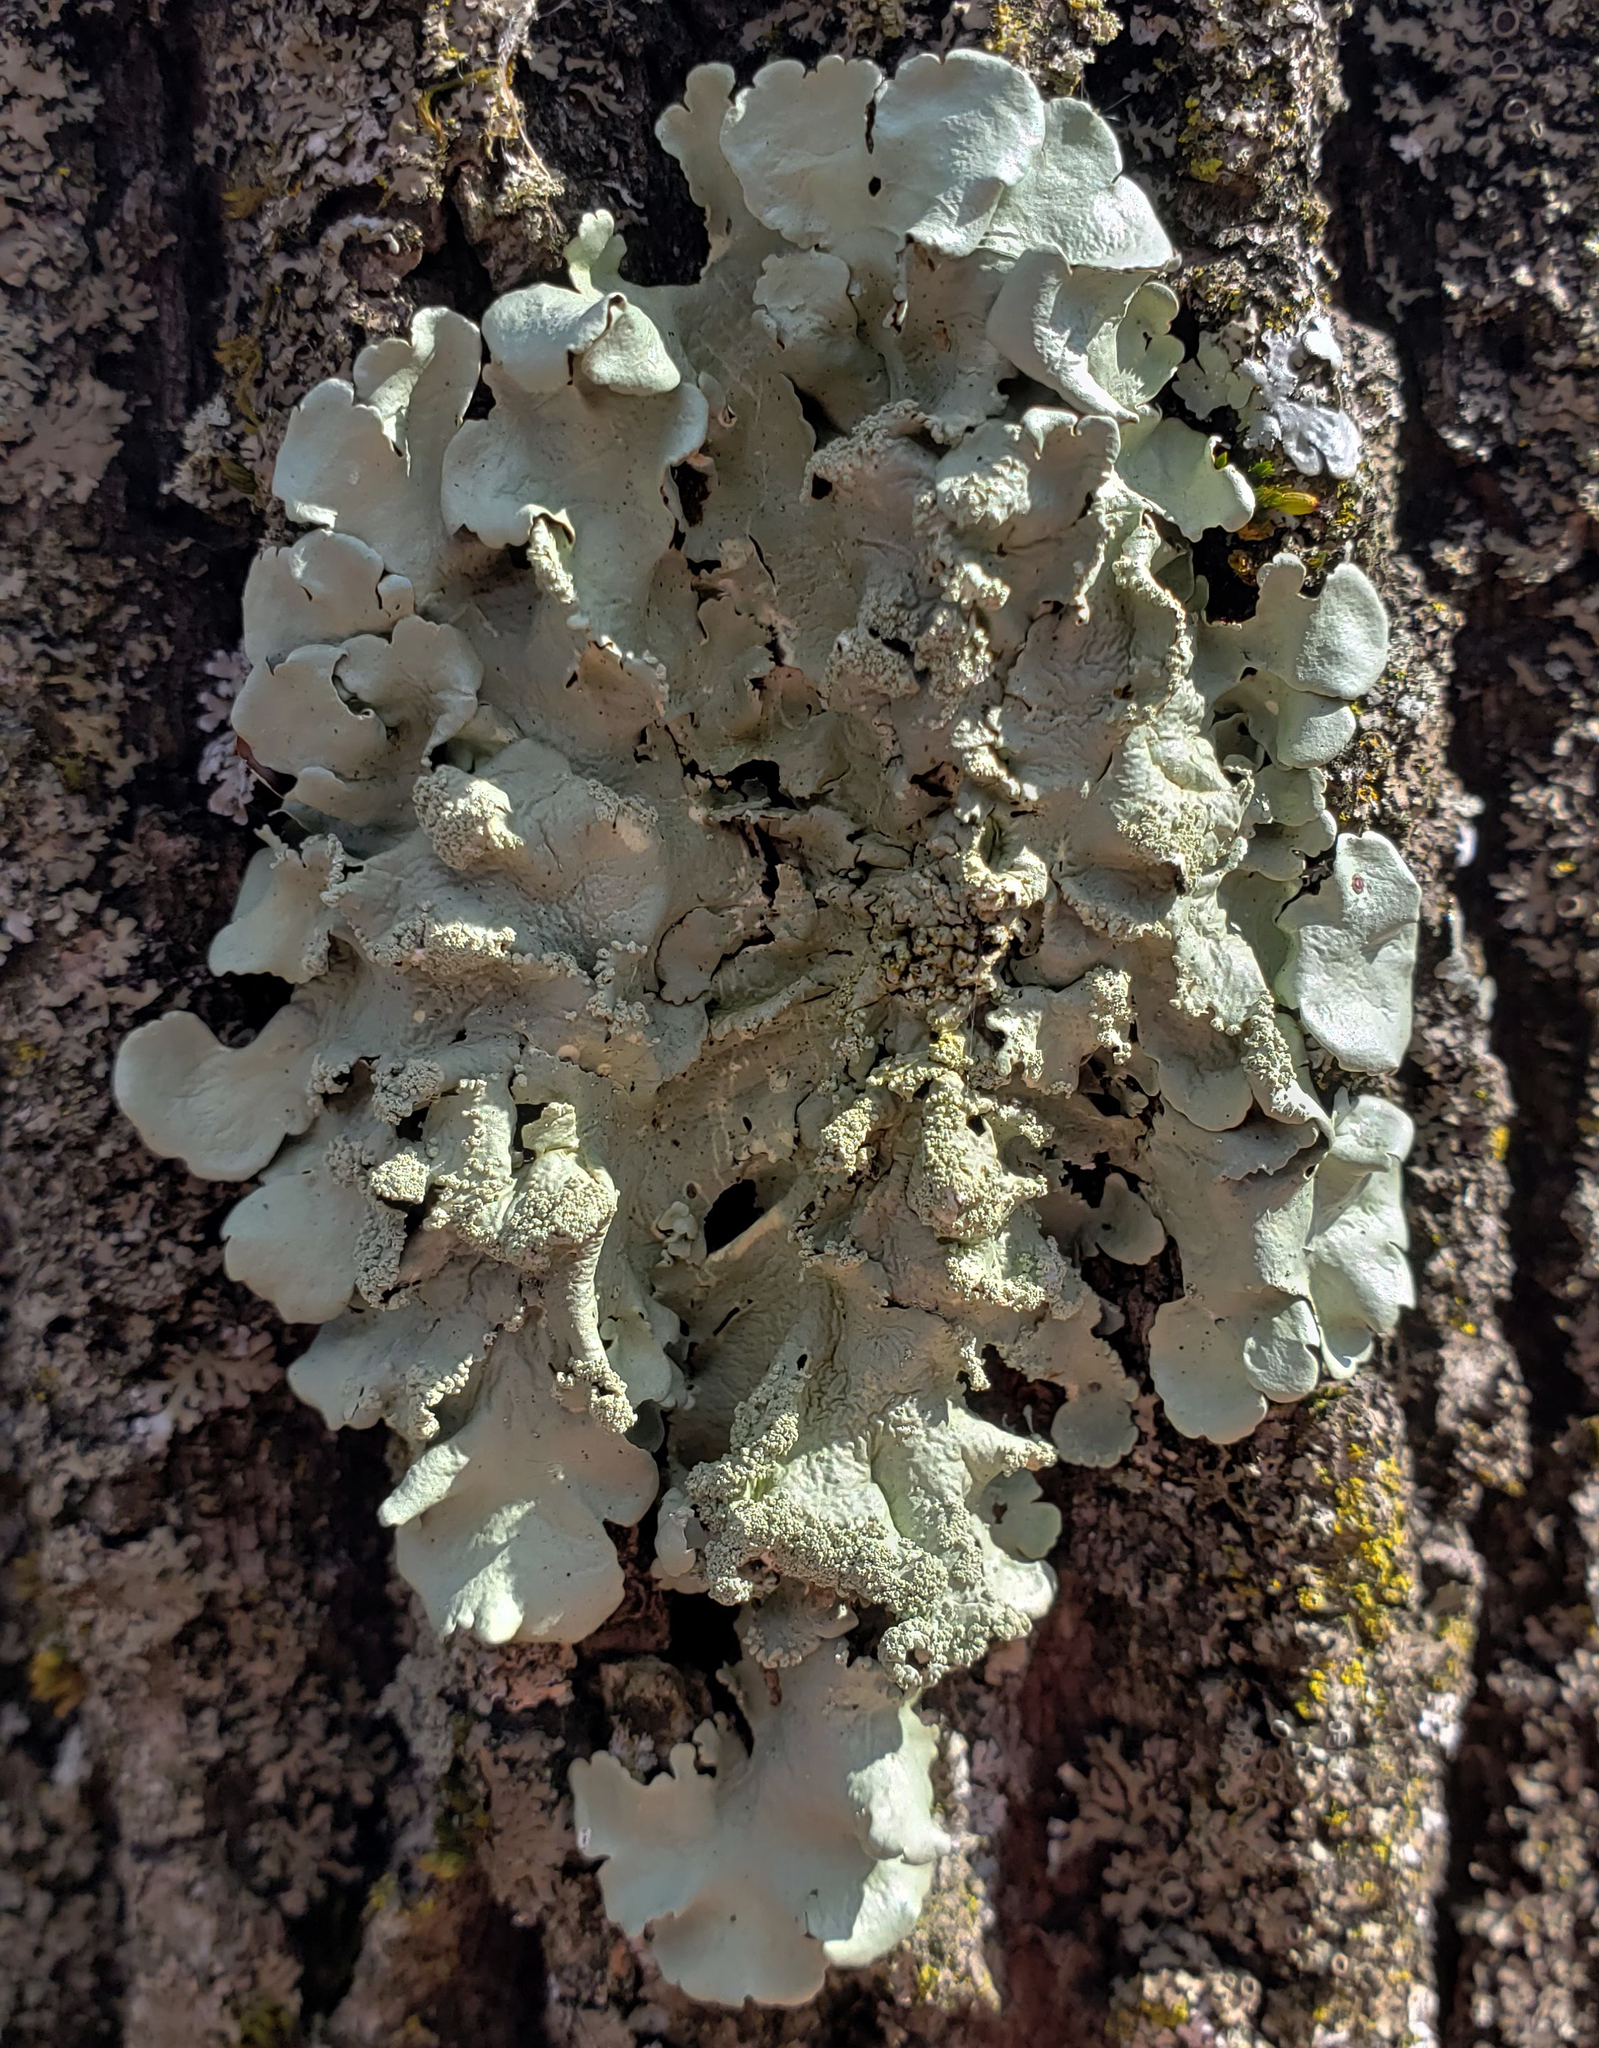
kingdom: Fungi
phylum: Ascomycota
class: Lecanoromycetes
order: Lecanorales
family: Parmeliaceae
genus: Flavoparmelia
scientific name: Flavoparmelia caperata
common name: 40-mile per hour lichen
